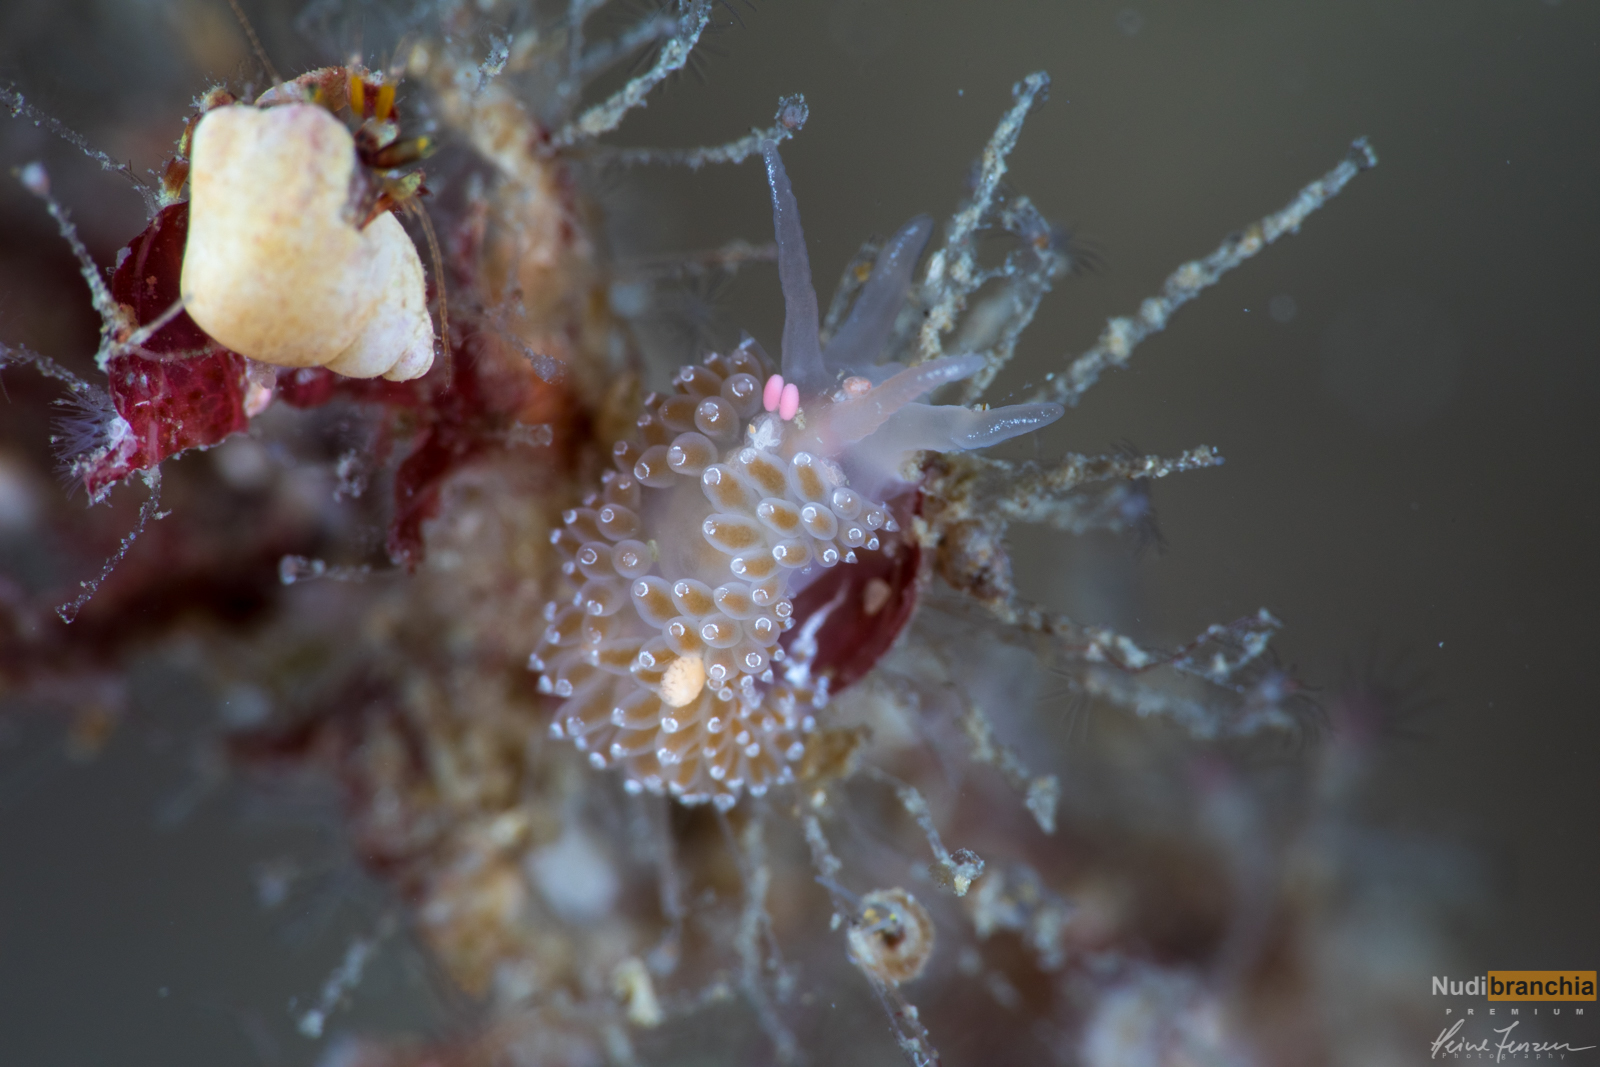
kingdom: Animalia
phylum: Mollusca
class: Gastropoda
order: Nudibranchia
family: Coryphellidae
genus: Coryphella
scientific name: Coryphella verrucosa
